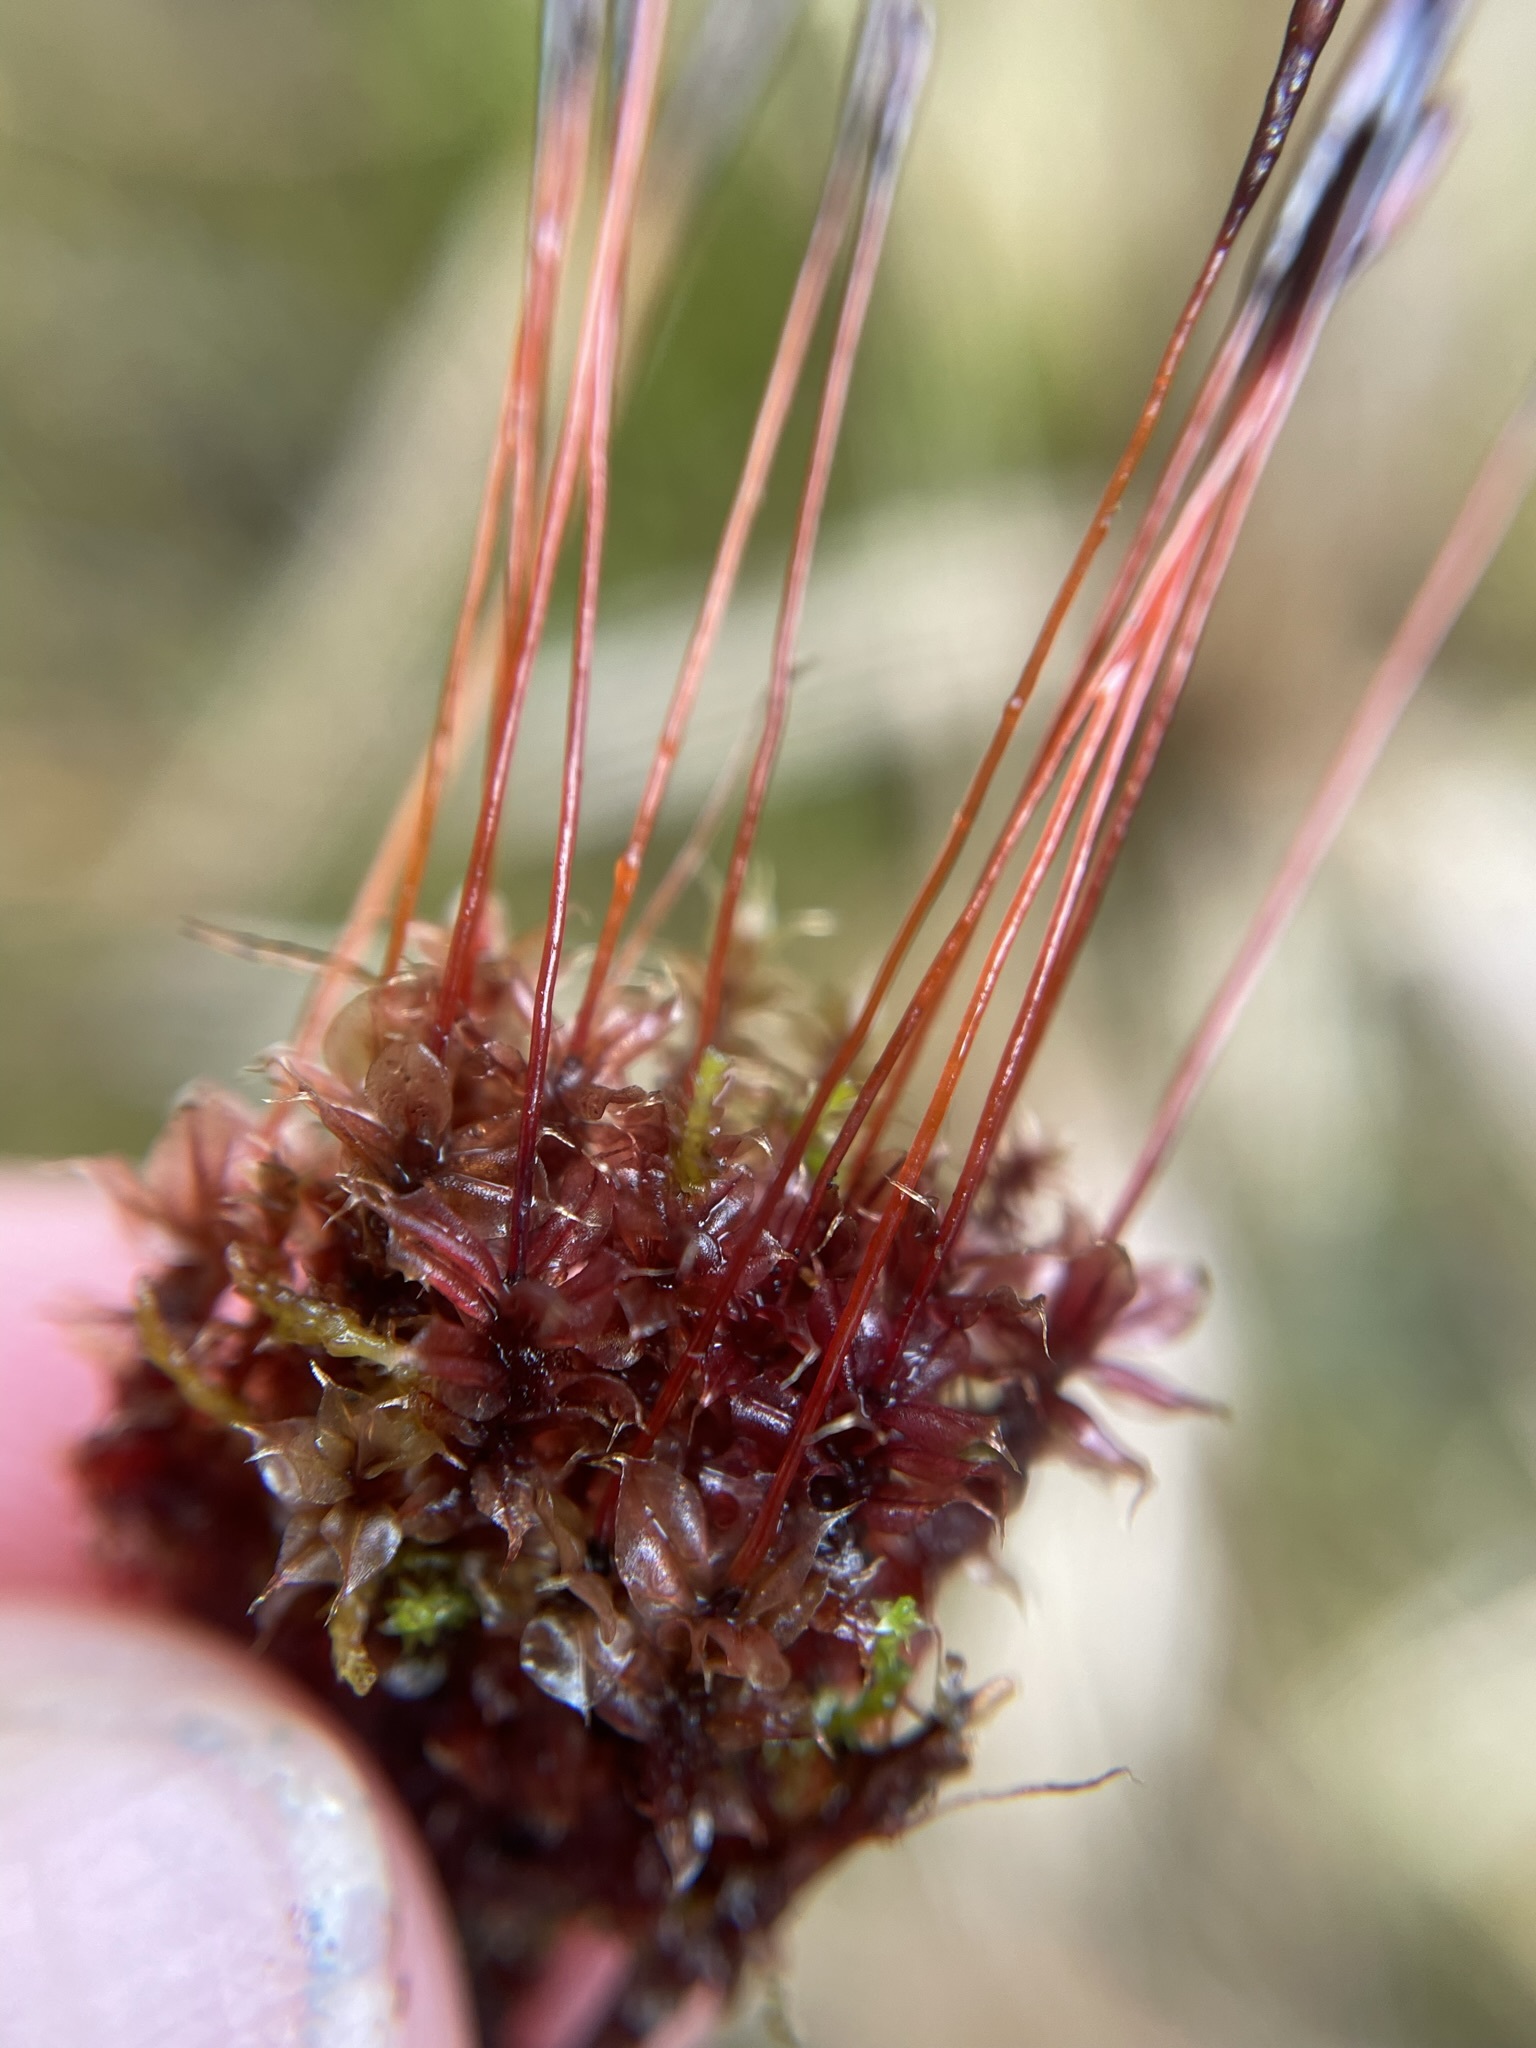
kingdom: Plantae
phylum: Bryophyta
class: Bryopsida
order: Splachnales
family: Splachnaceae
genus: Tayloria
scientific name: Tayloria purpurascens
